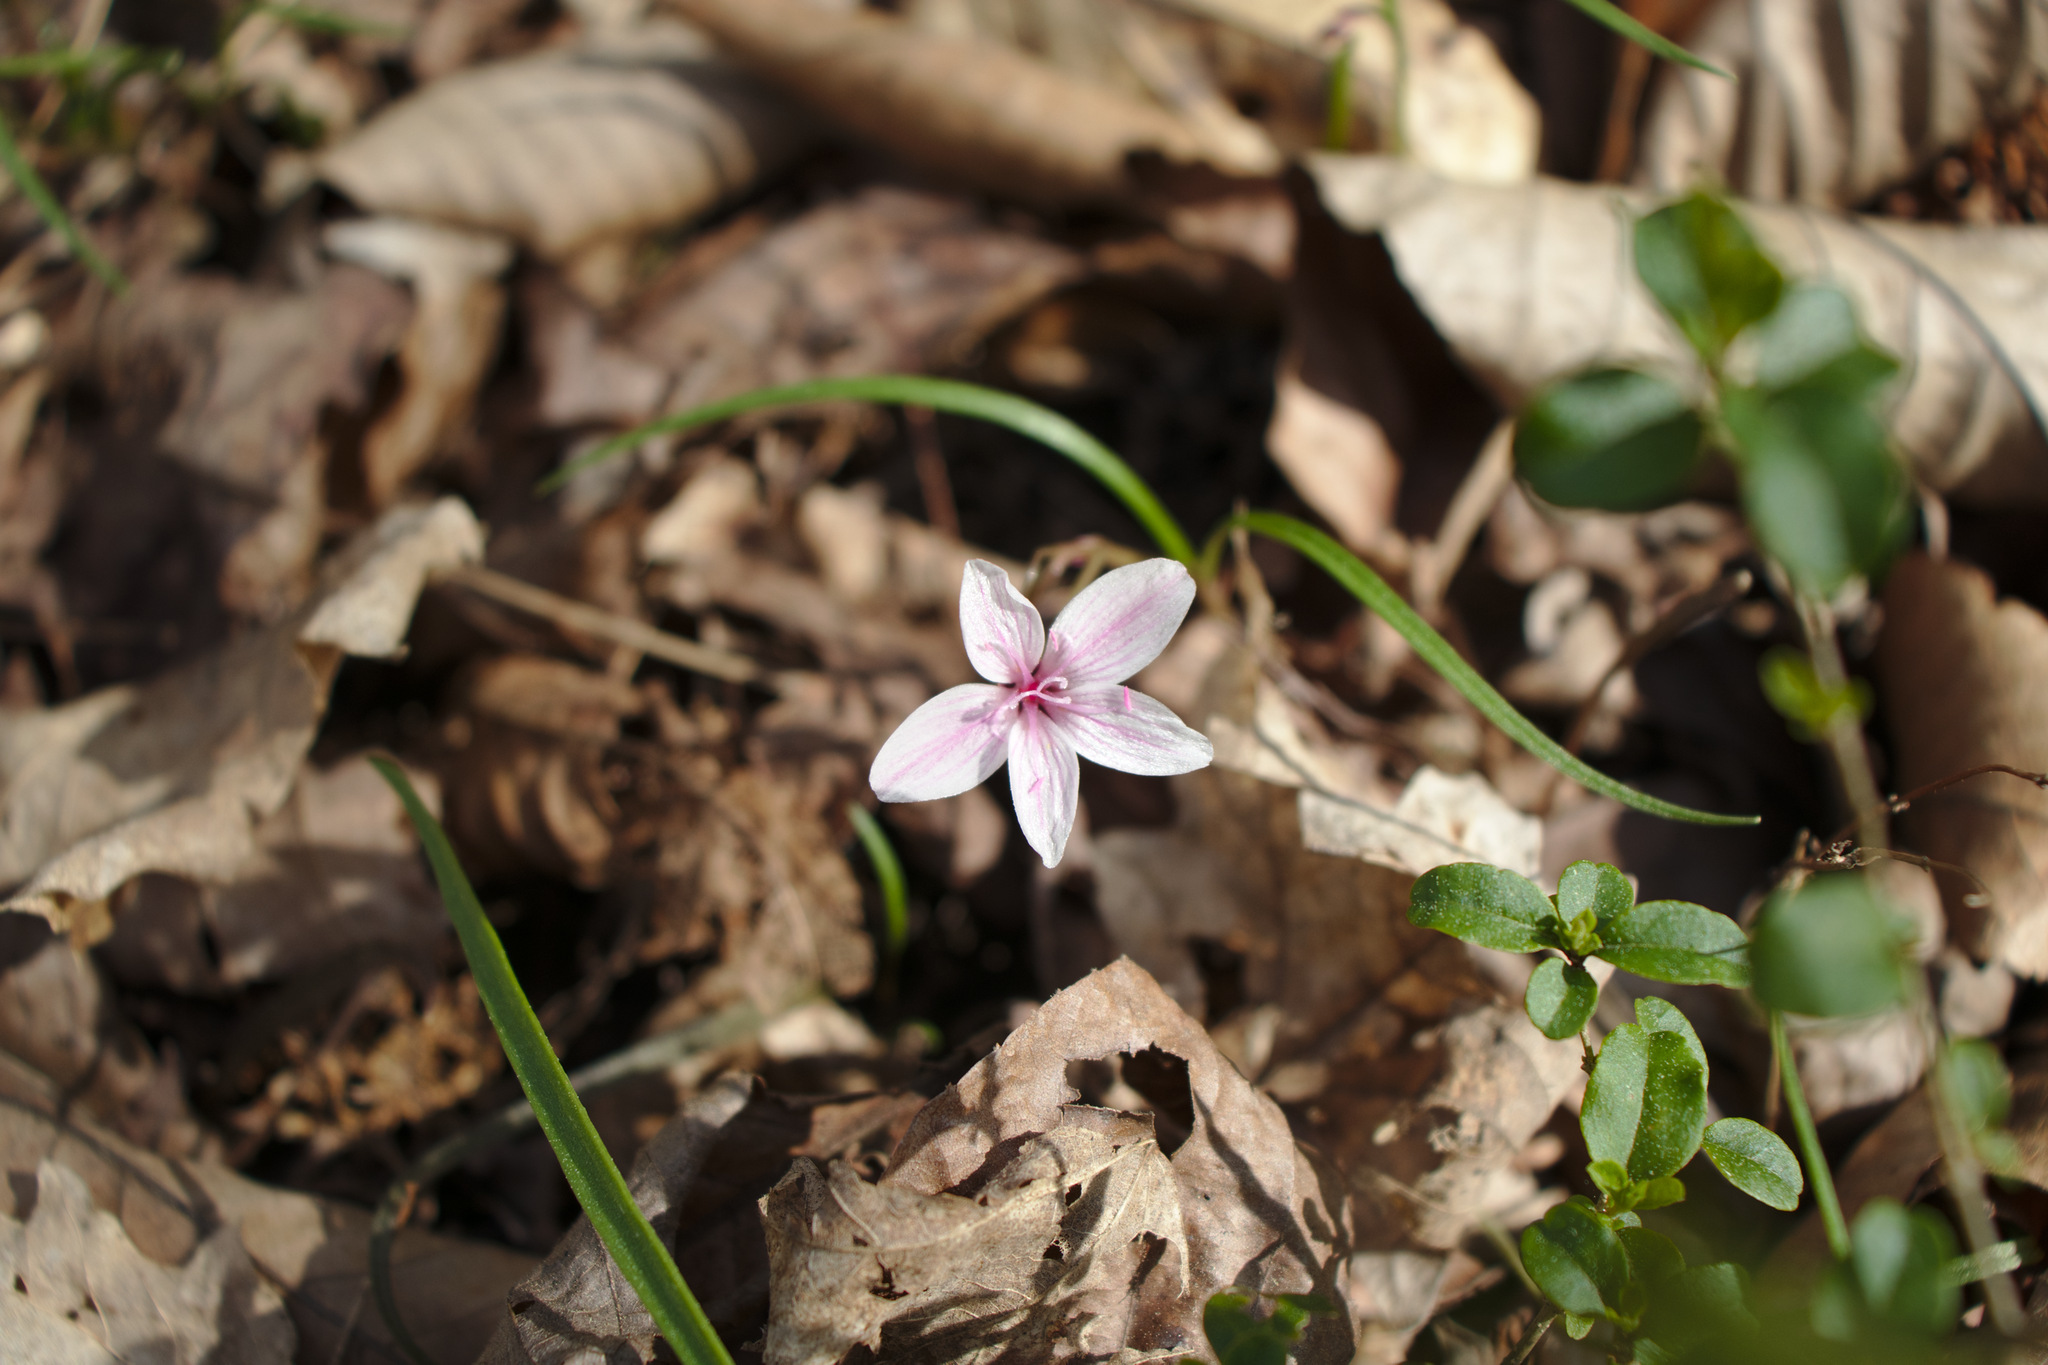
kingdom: Plantae
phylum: Tracheophyta
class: Magnoliopsida
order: Caryophyllales
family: Montiaceae
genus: Claytonia
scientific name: Claytonia virginica
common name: Virginia springbeauty
